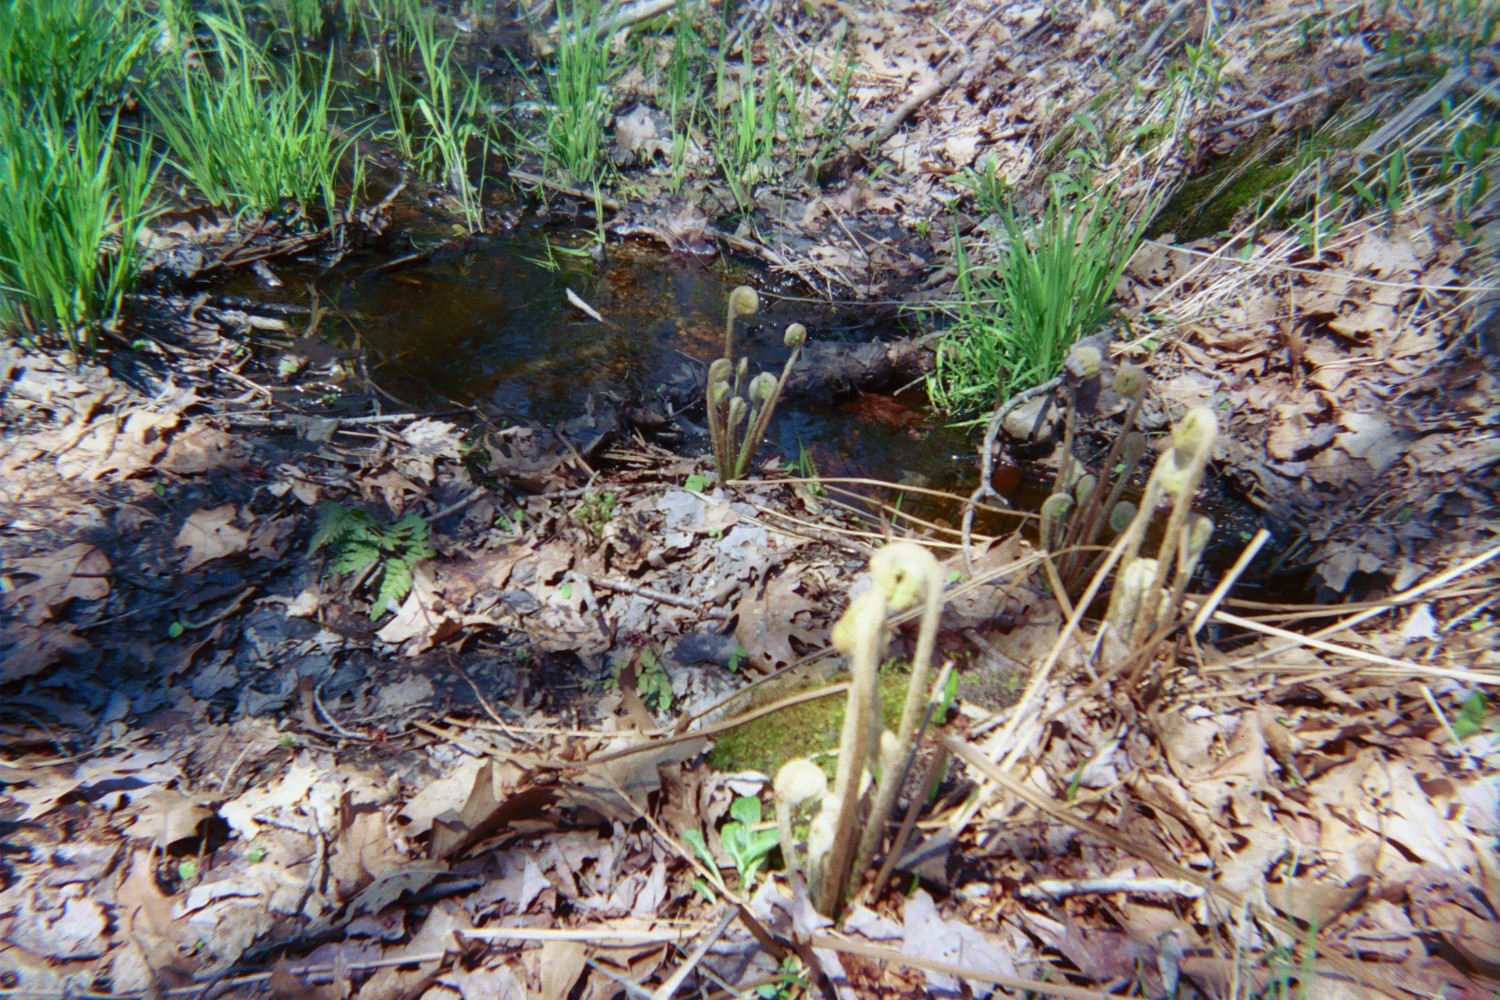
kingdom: Plantae
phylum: Tracheophyta
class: Polypodiopsida
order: Osmundales
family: Osmundaceae
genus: Osmundastrum
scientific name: Osmundastrum cinnamomeum
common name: Cinnamon fern
